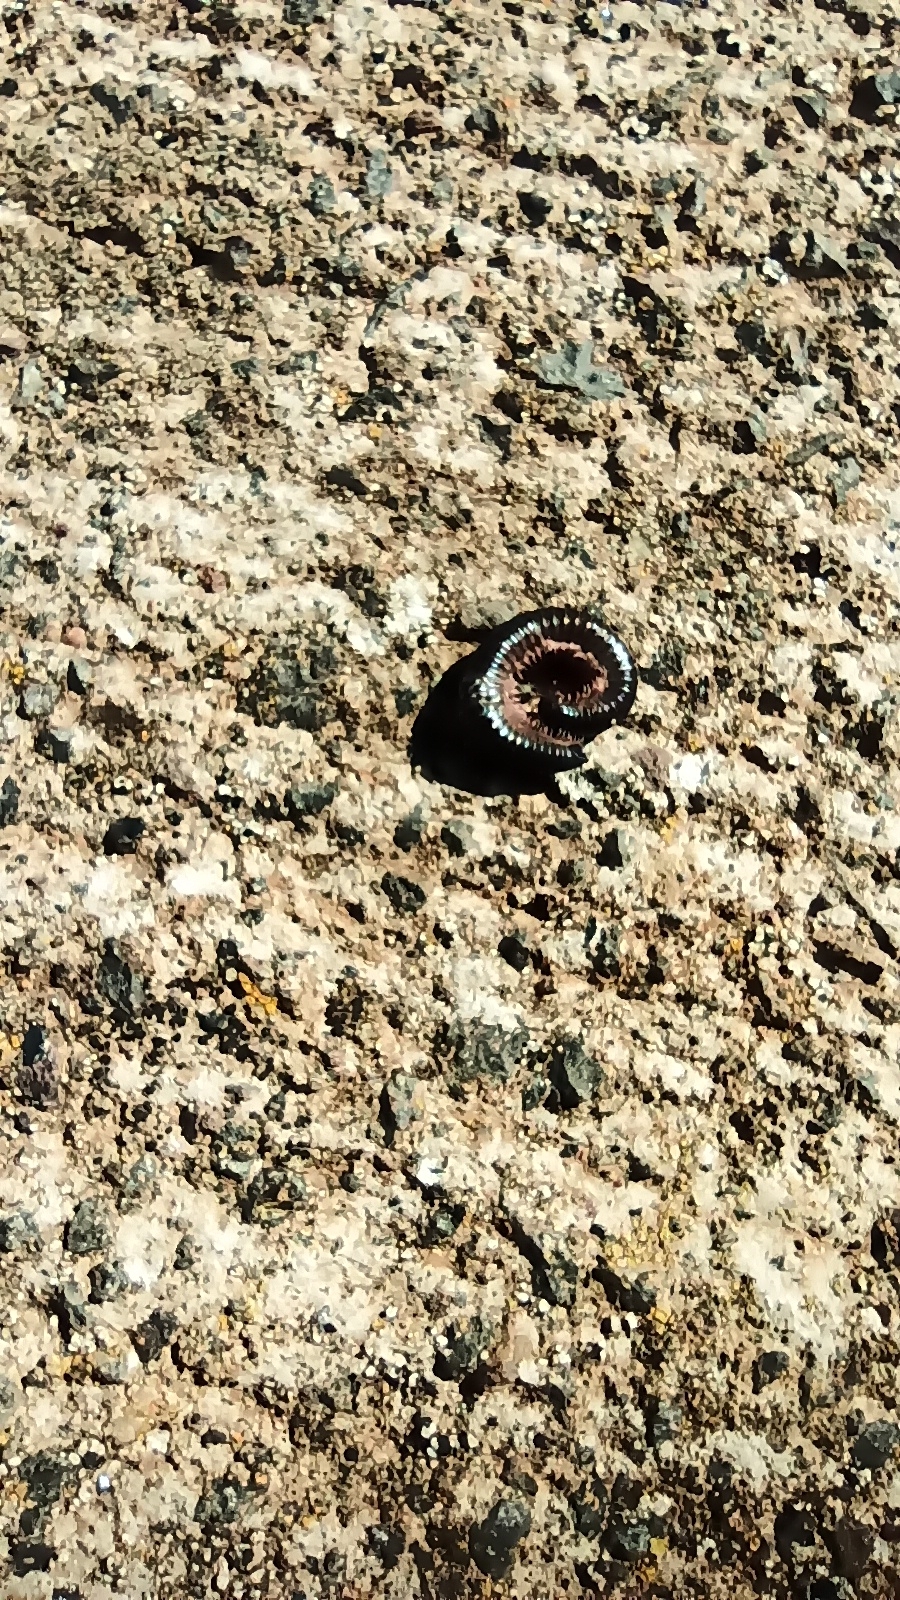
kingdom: Animalia
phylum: Arthropoda
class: Diplopoda
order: Julida
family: Julidae
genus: Ommatoiulus
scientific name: Ommatoiulus moreleti
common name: Portuguese millipede
